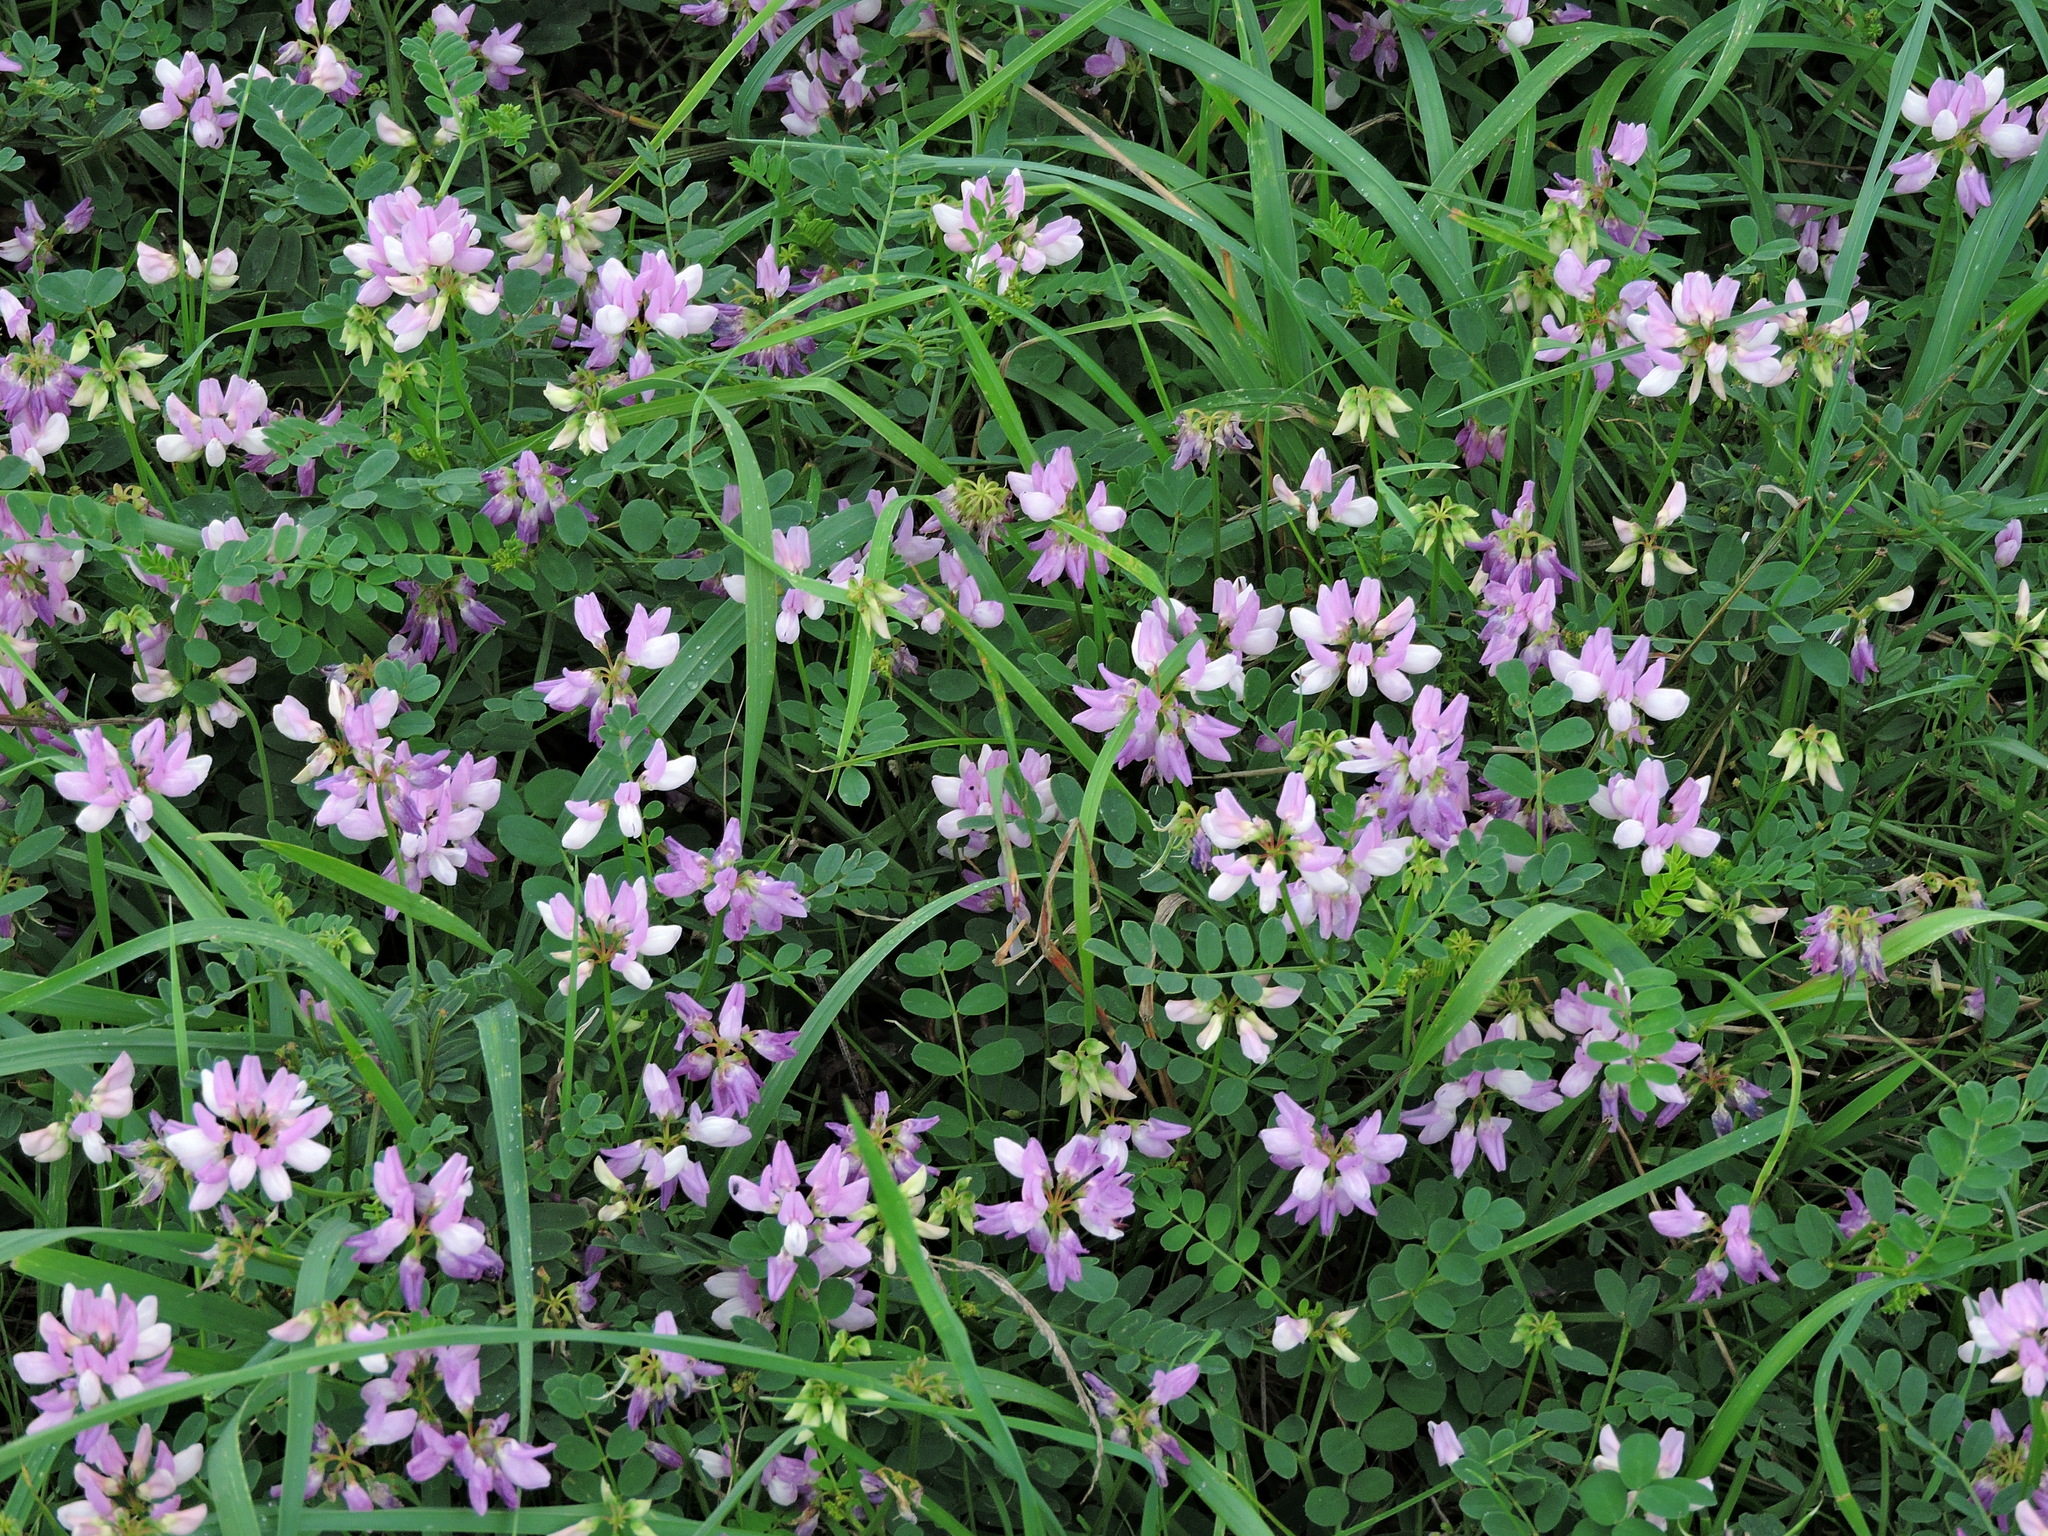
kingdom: Plantae
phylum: Tracheophyta
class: Magnoliopsida
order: Fabales
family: Fabaceae
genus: Coronilla
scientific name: Coronilla varia
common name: Crownvetch
